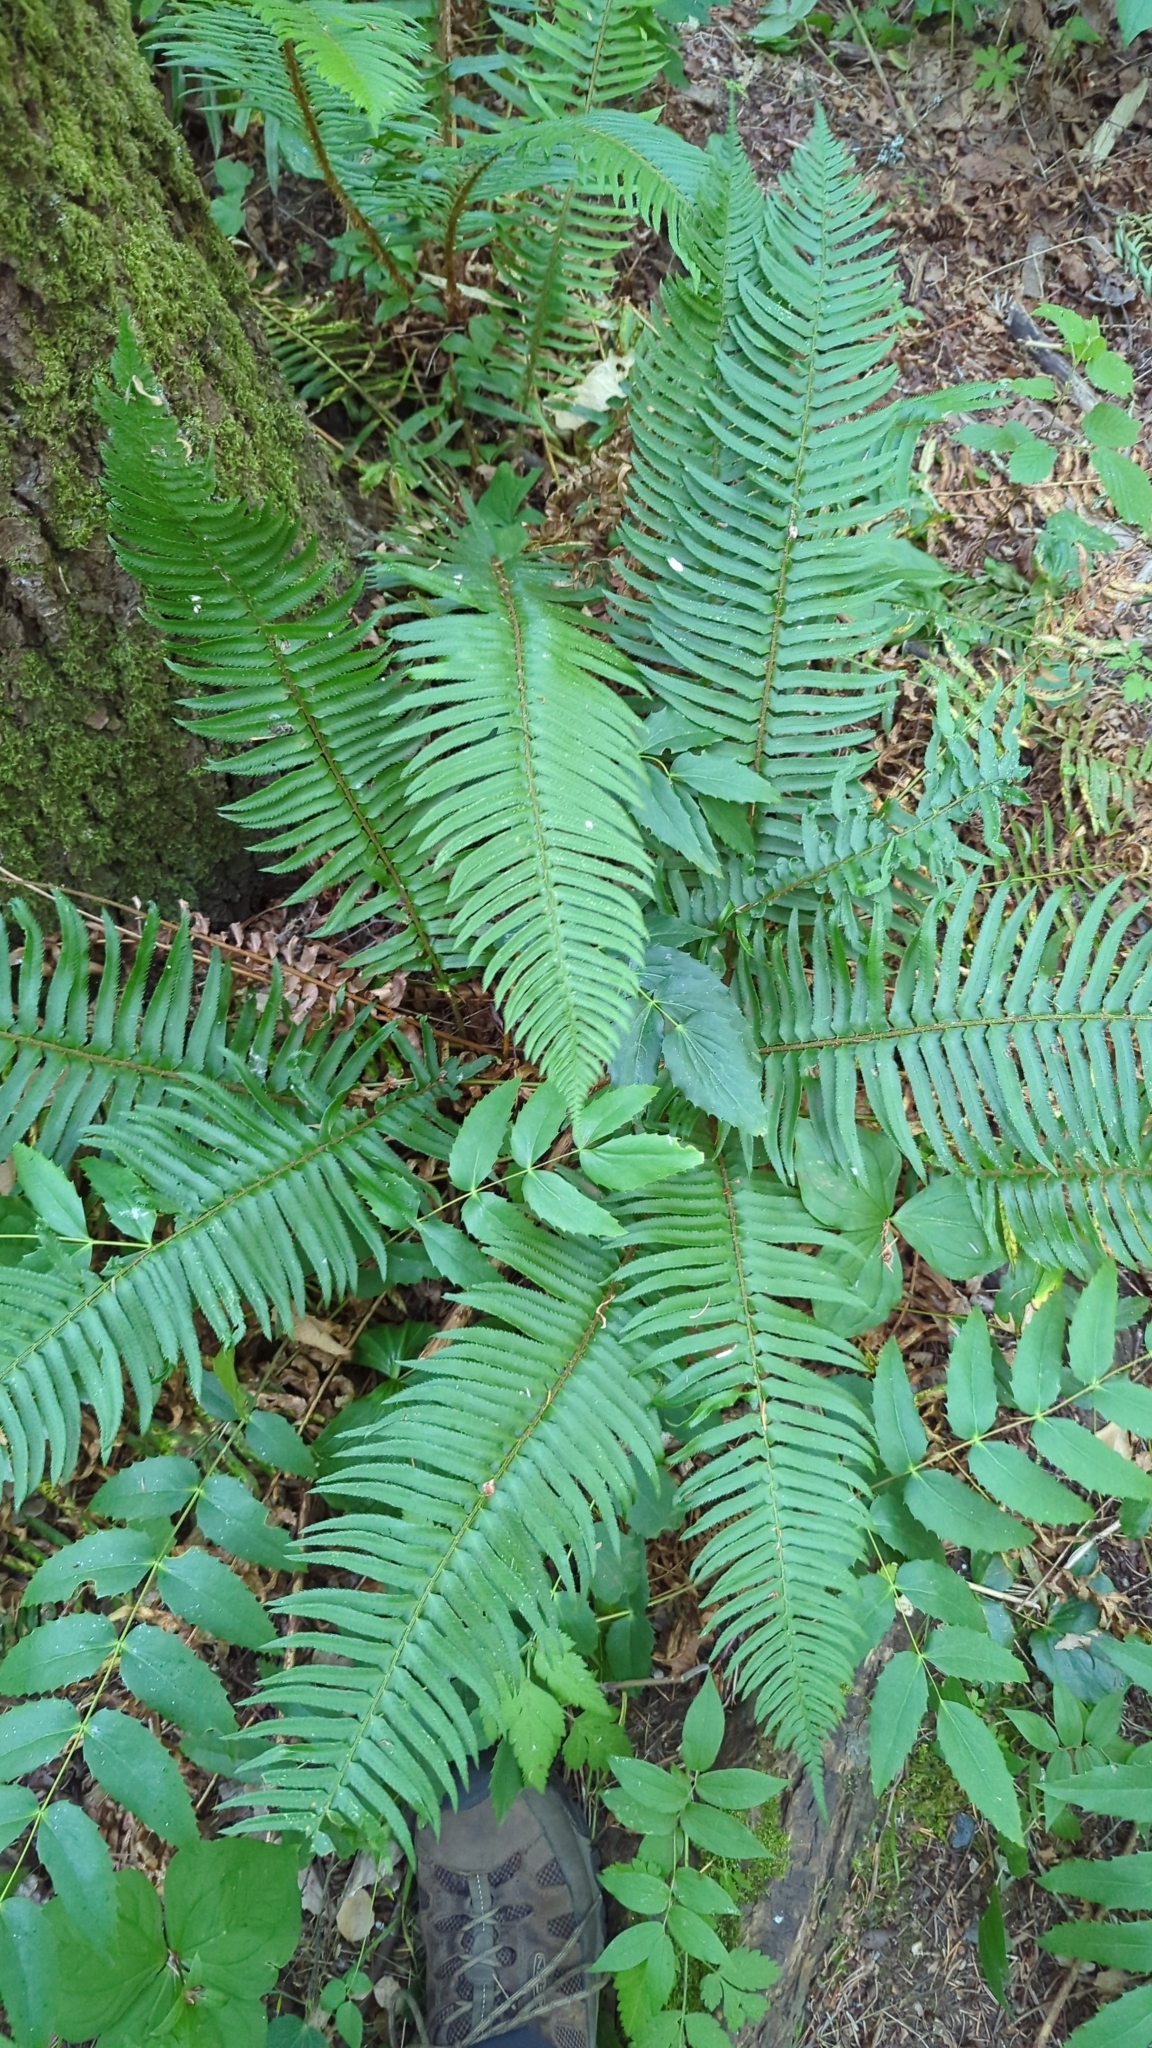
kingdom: Plantae
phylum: Tracheophyta
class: Polypodiopsida
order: Polypodiales
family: Dryopteridaceae
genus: Polystichum
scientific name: Polystichum munitum
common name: Western sword-fern
